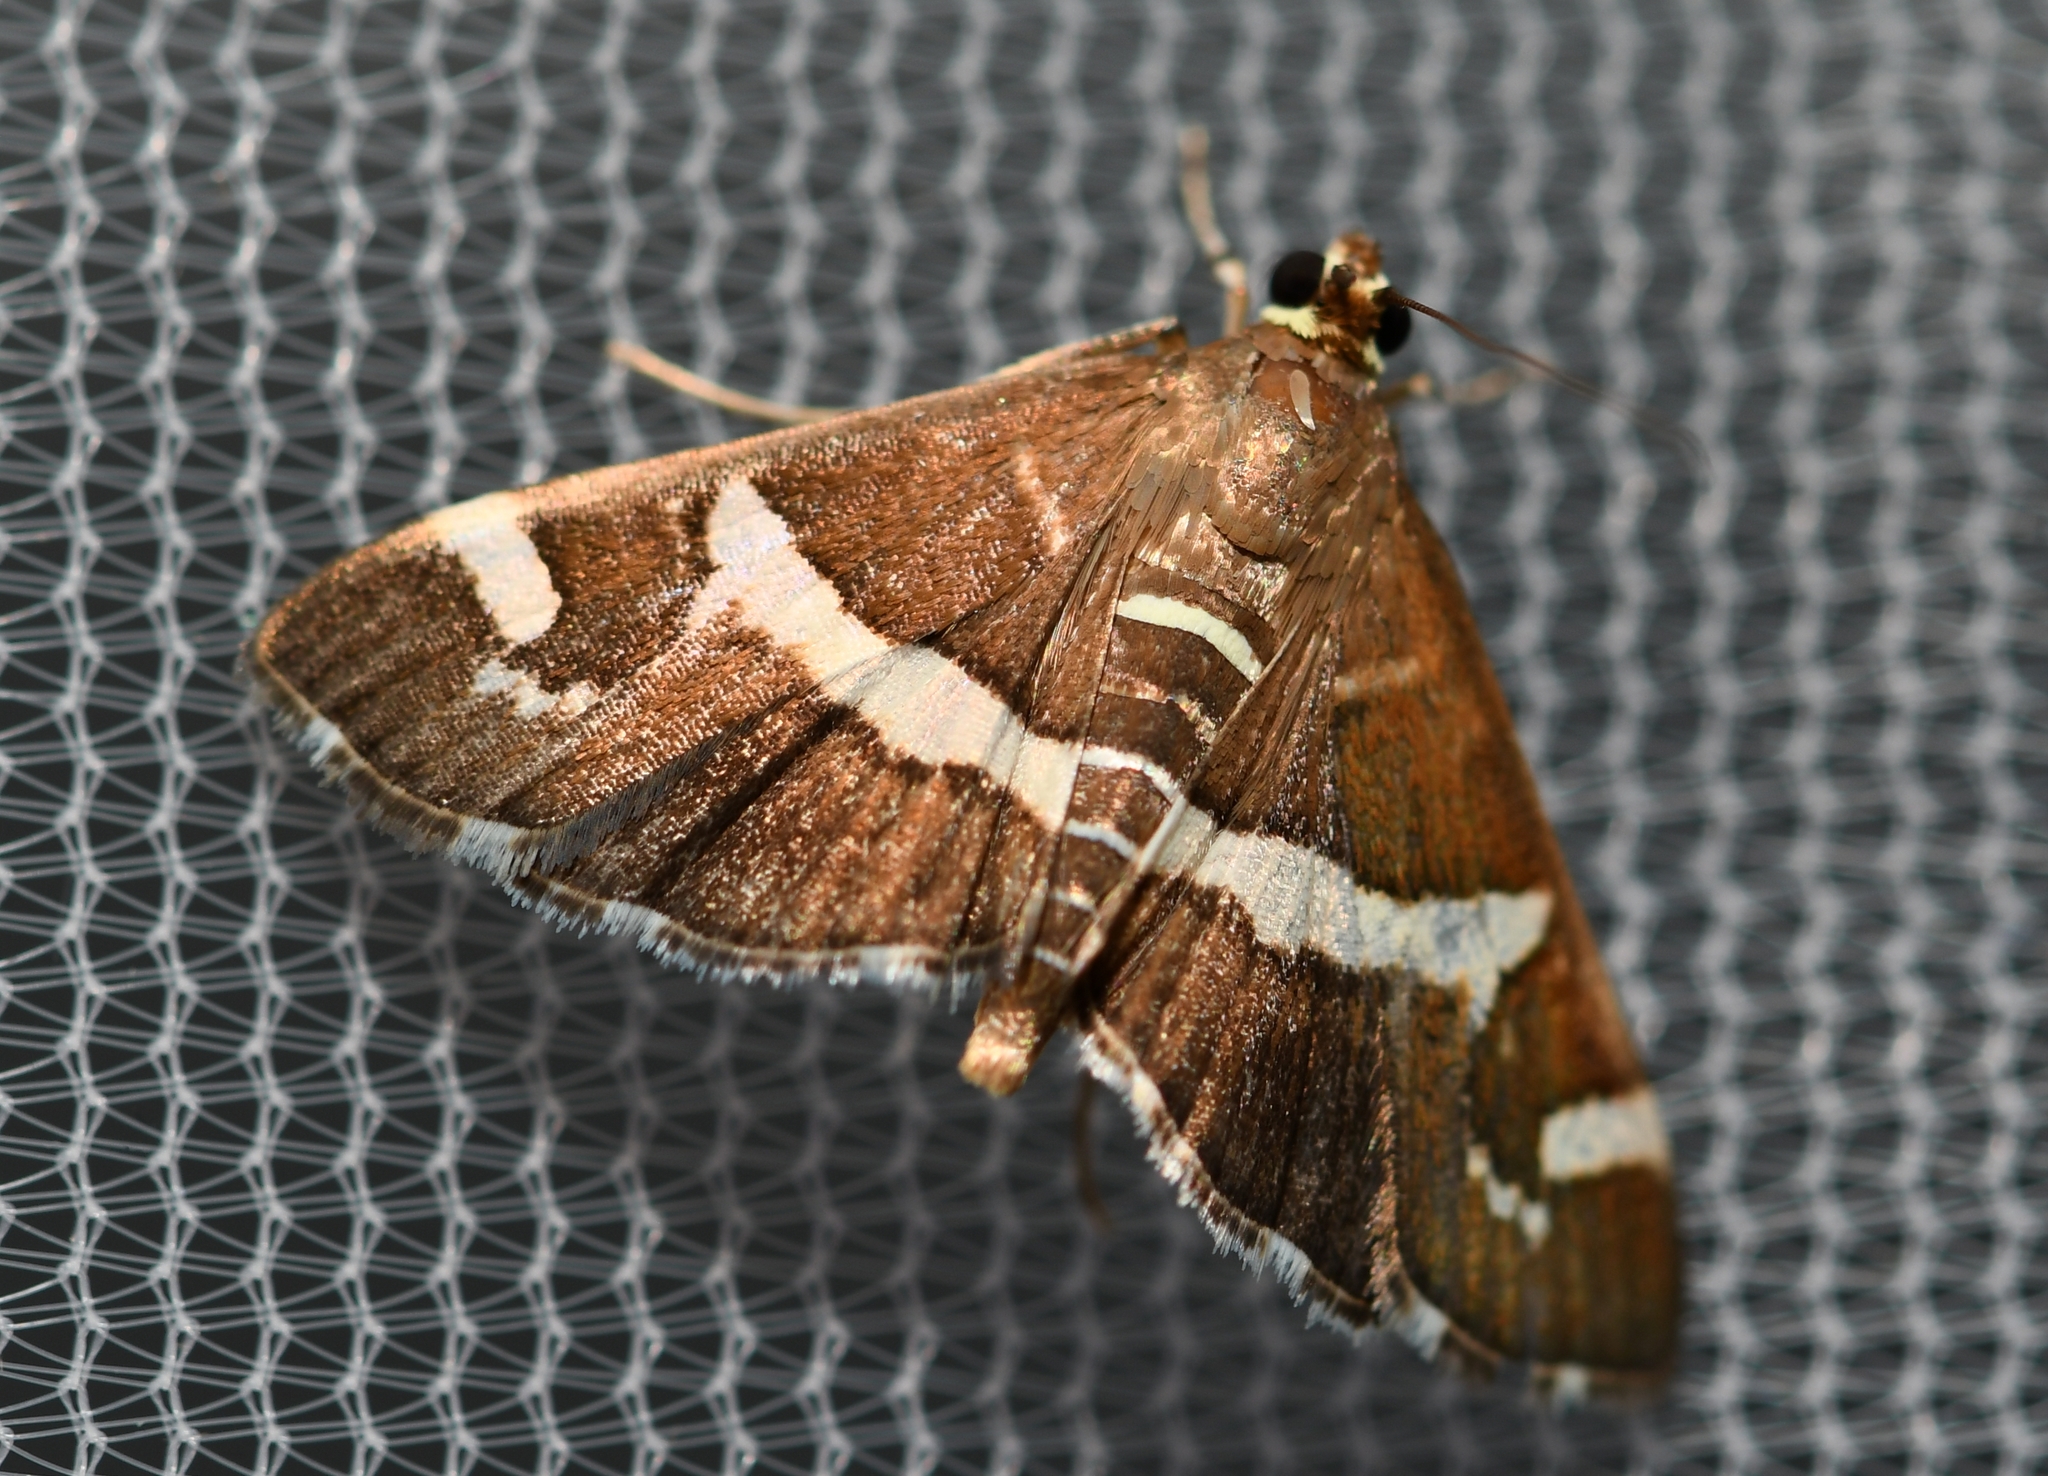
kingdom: Animalia
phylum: Arthropoda
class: Insecta
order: Lepidoptera
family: Crambidae
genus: Spoladea
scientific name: Spoladea recurvalis
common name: Beet webworm moth
